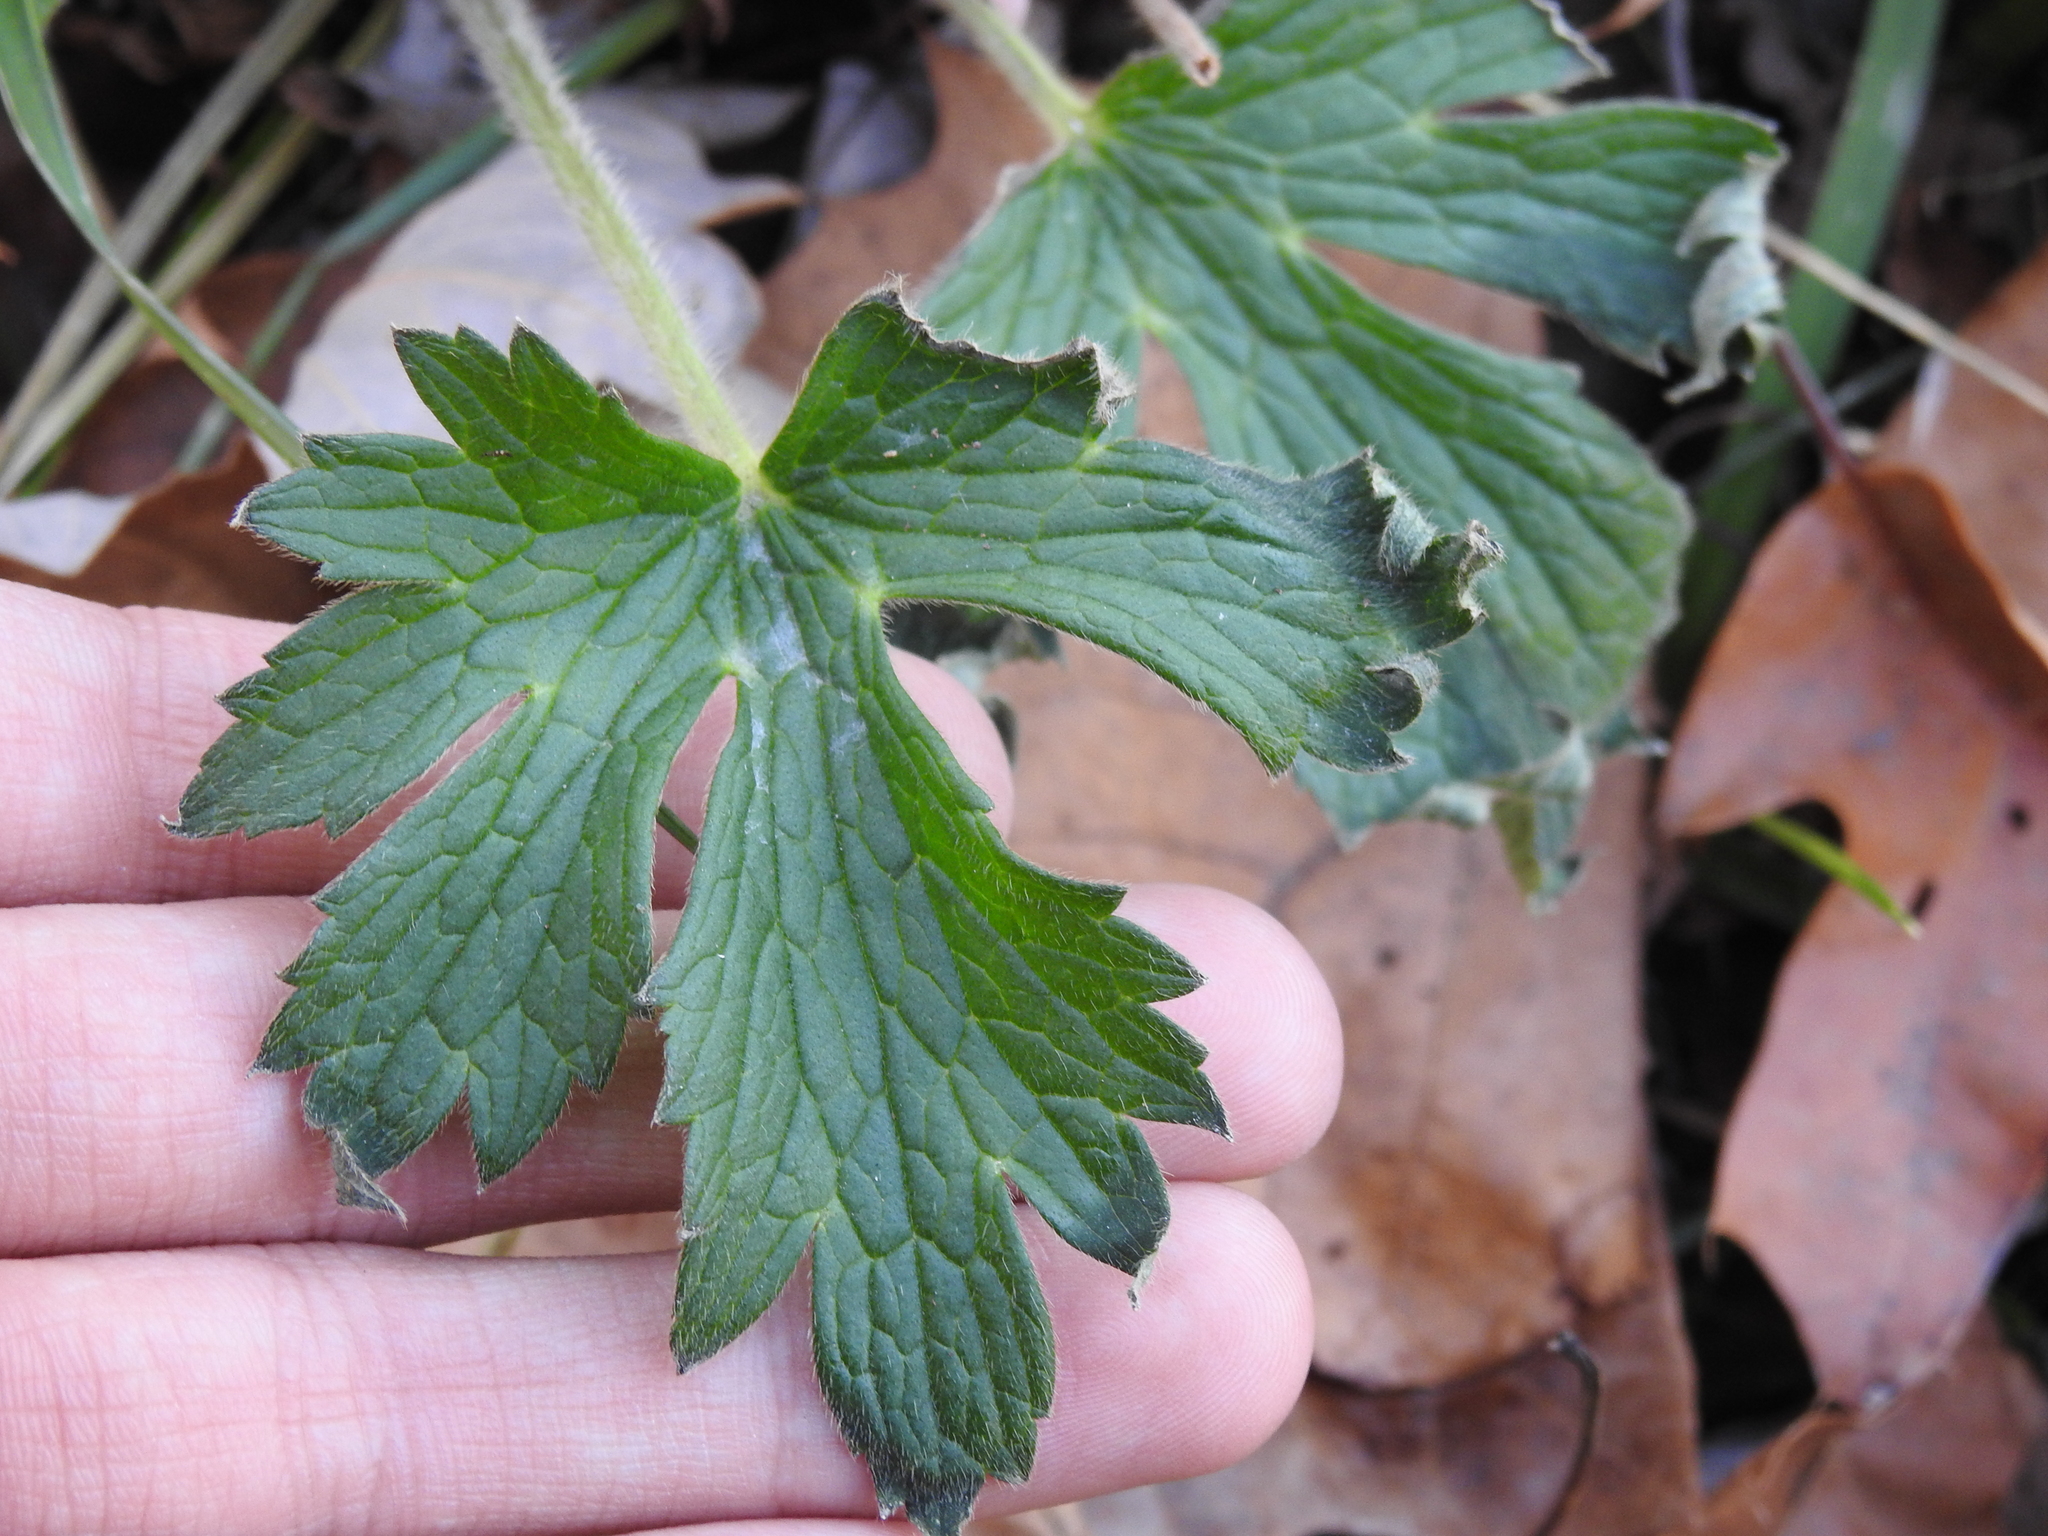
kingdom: Plantae
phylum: Tracheophyta
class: Magnoliopsida
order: Geraniales
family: Geraniaceae
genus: Geranium
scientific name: Geranium maculatum
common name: Spotted geranium
